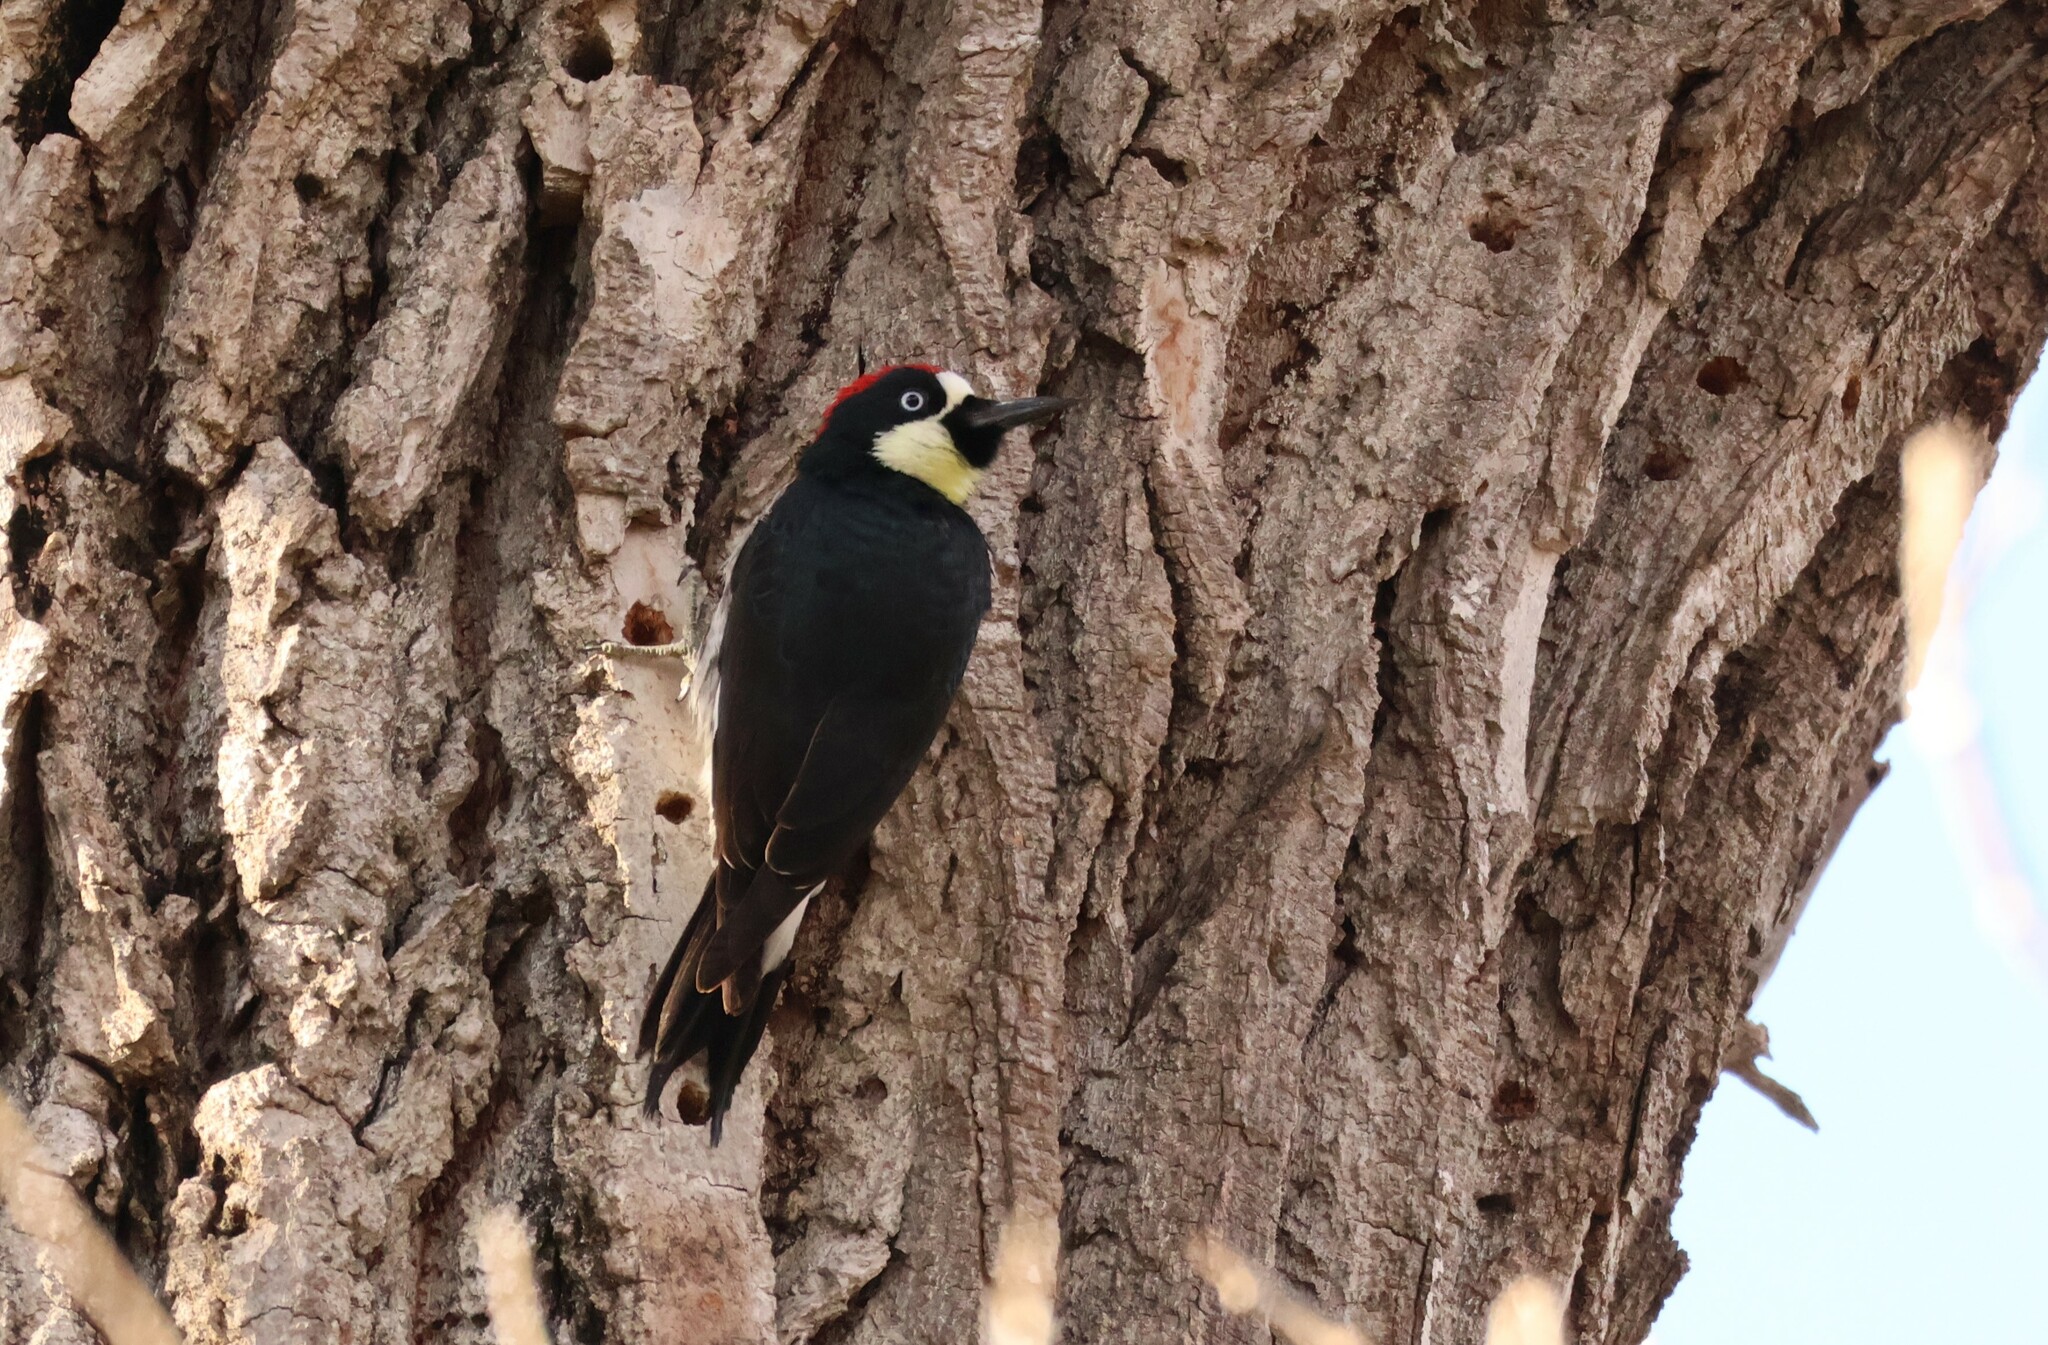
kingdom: Animalia
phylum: Chordata
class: Aves
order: Piciformes
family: Picidae
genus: Melanerpes
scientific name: Melanerpes formicivorus
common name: Acorn woodpecker
